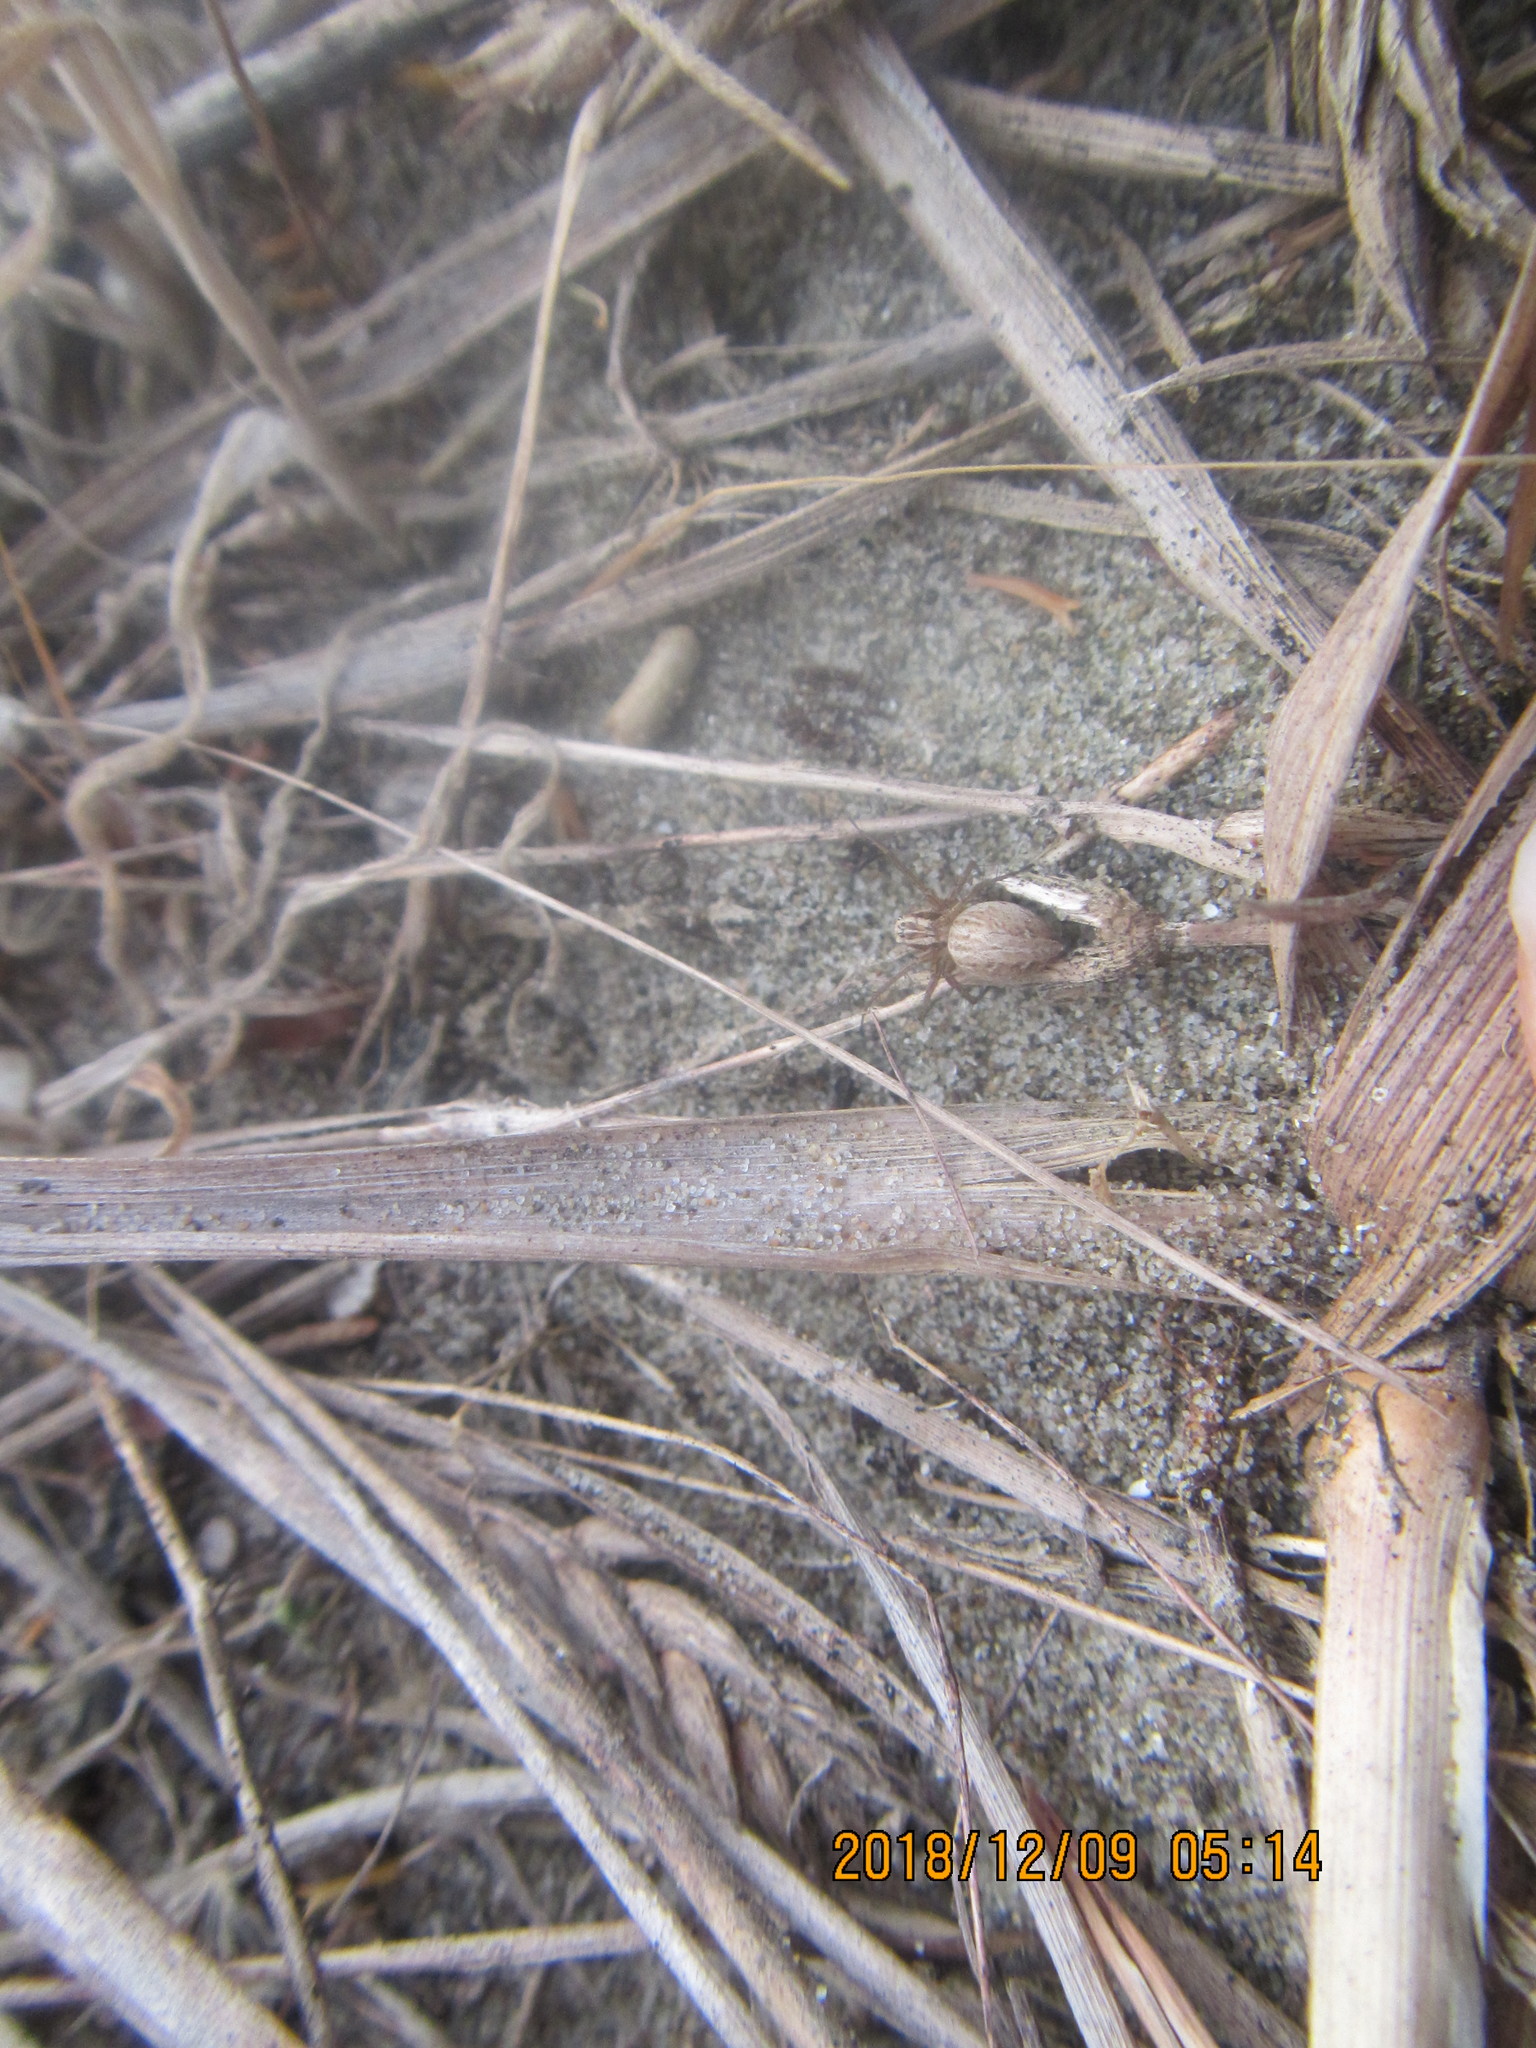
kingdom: Animalia
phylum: Arthropoda
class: Arachnida
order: Araneae
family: Oxyopidae
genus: Oxyopes
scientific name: Oxyopes gracilipes
